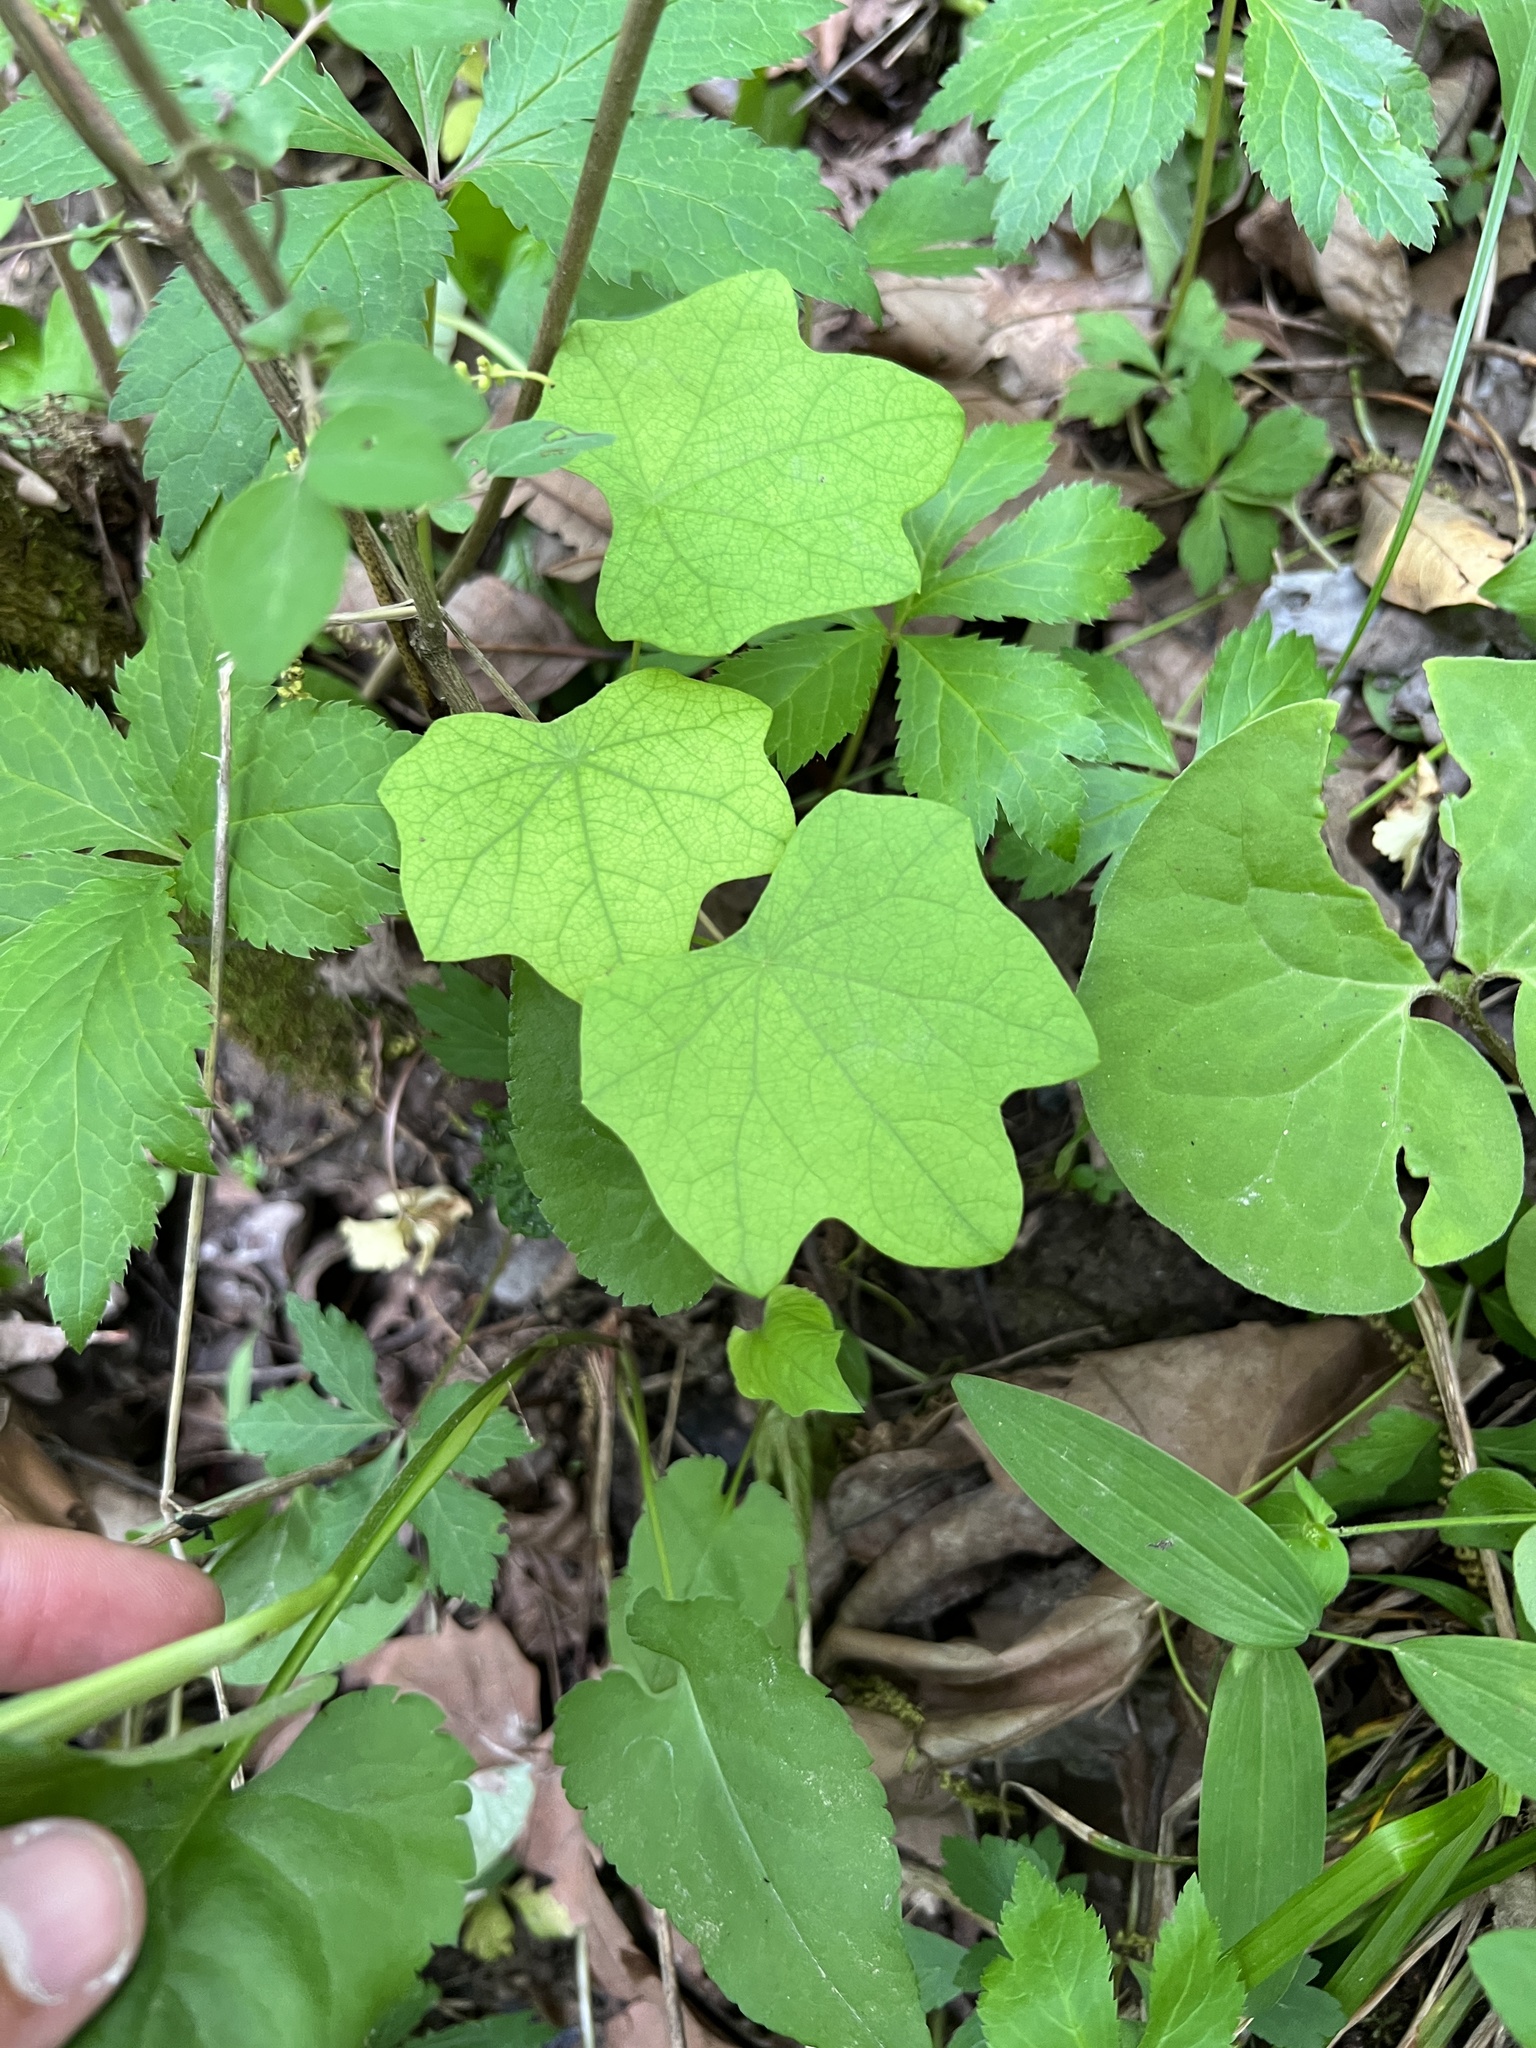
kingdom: Plantae
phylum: Tracheophyta
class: Magnoliopsida
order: Ranunculales
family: Menispermaceae
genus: Menispermum
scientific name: Menispermum canadense
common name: Moonseed
